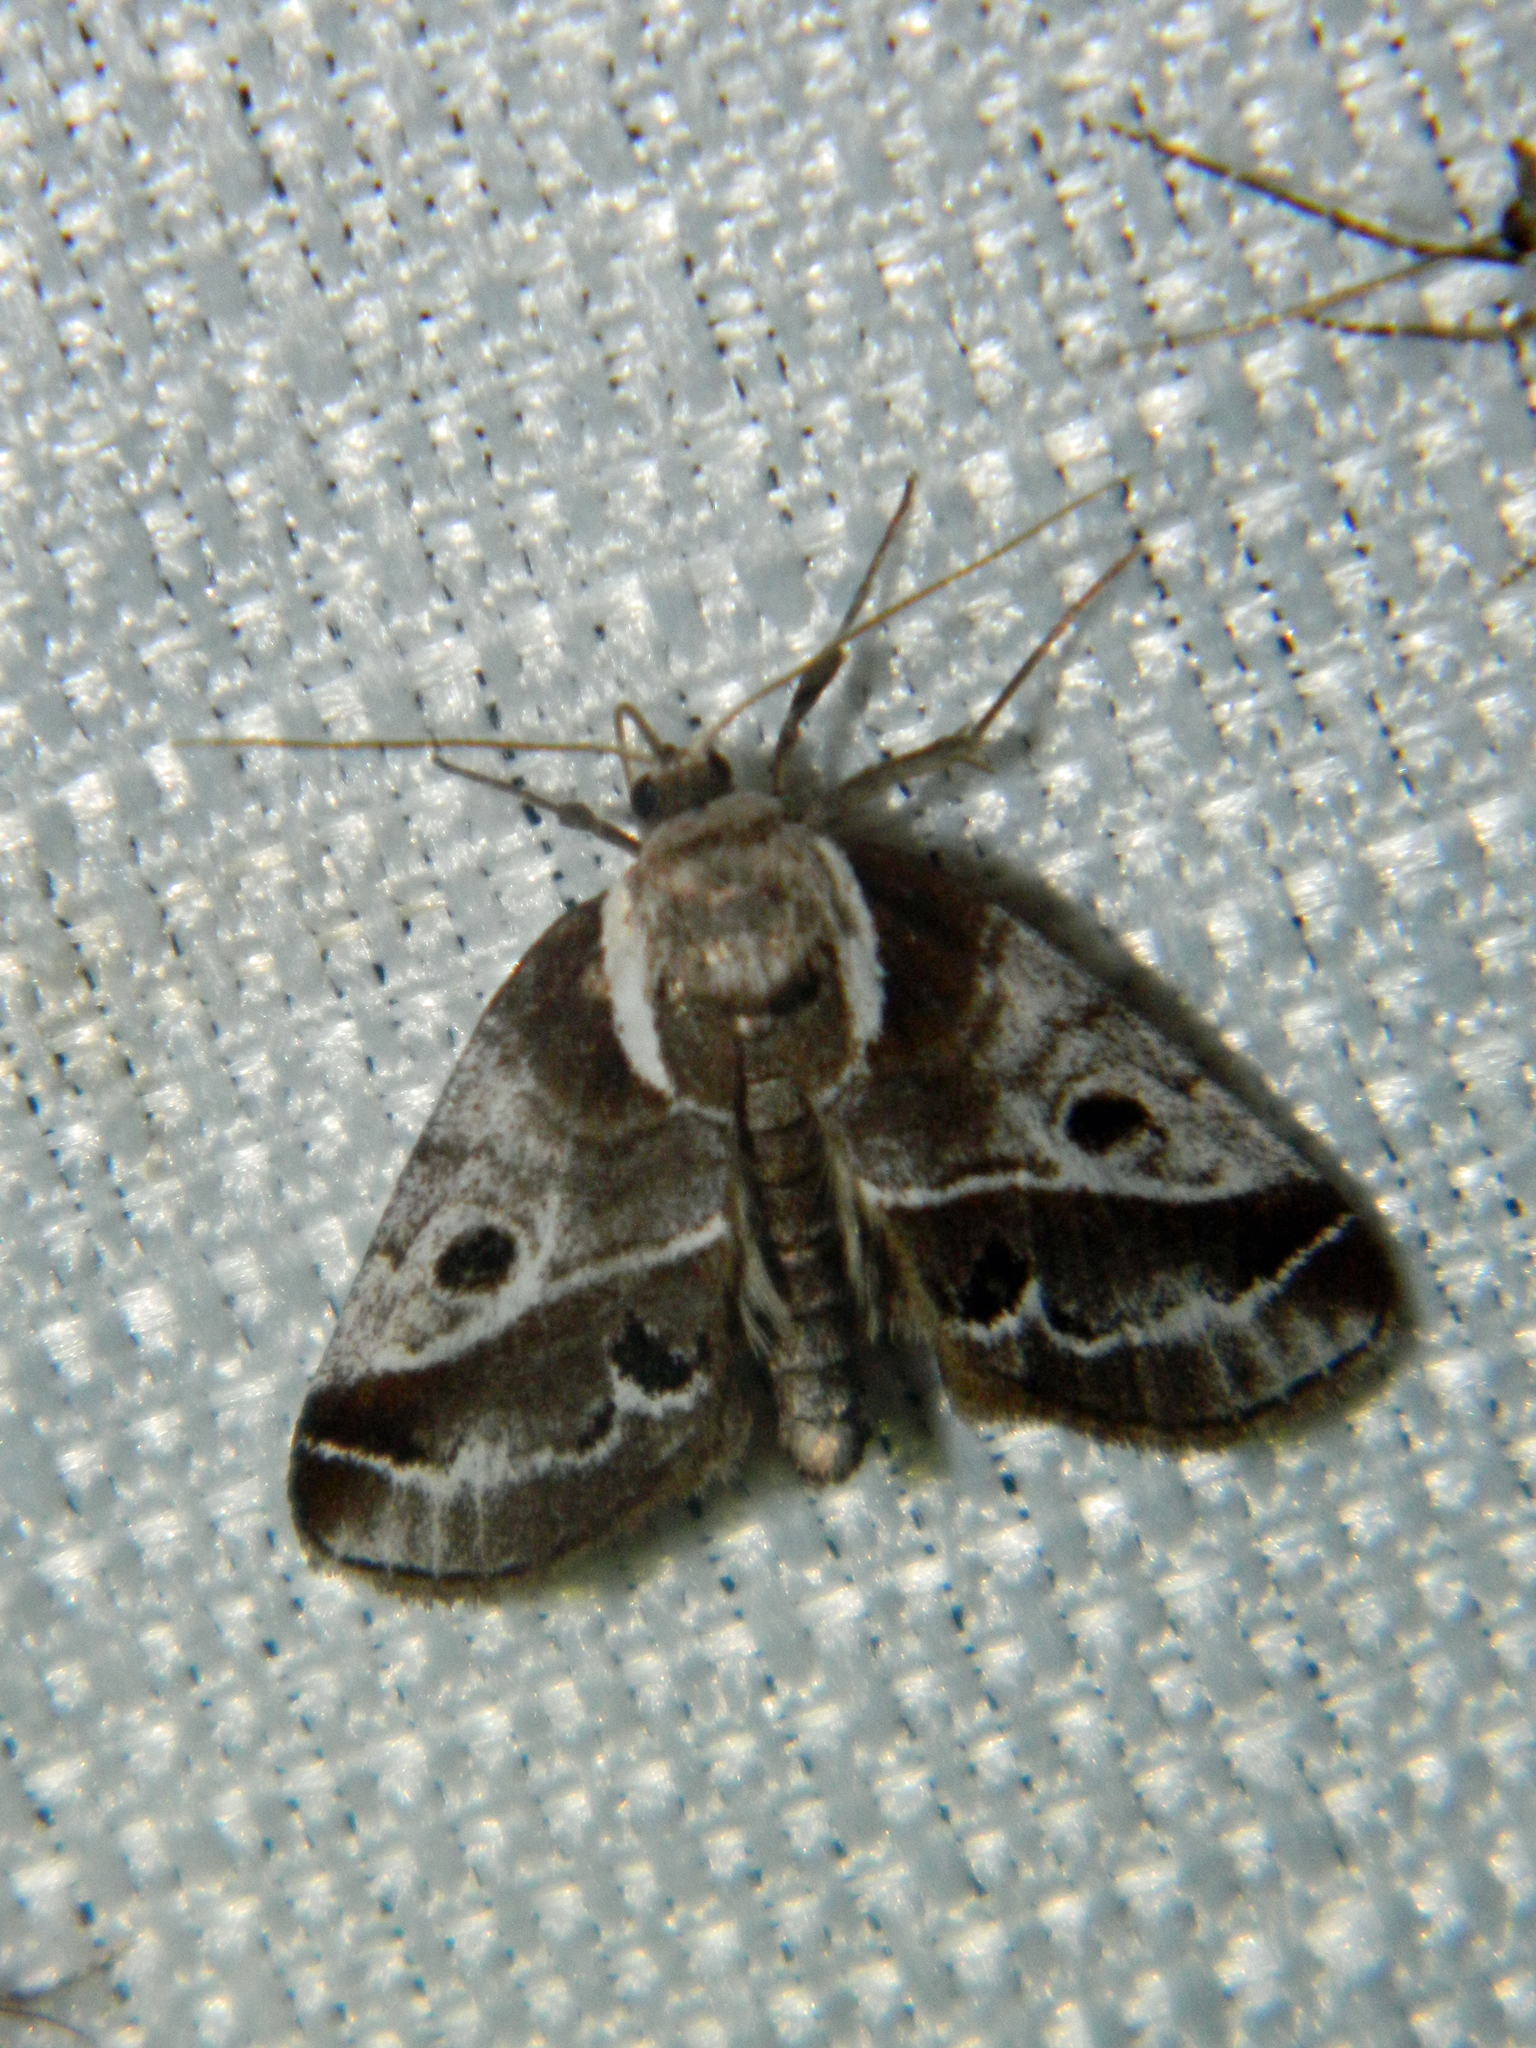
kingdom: Animalia
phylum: Arthropoda
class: Insecta
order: Lepidoptera
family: Nolidae
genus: Baileya
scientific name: Baileya doubledayi
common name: Doubleday's baileya moth
